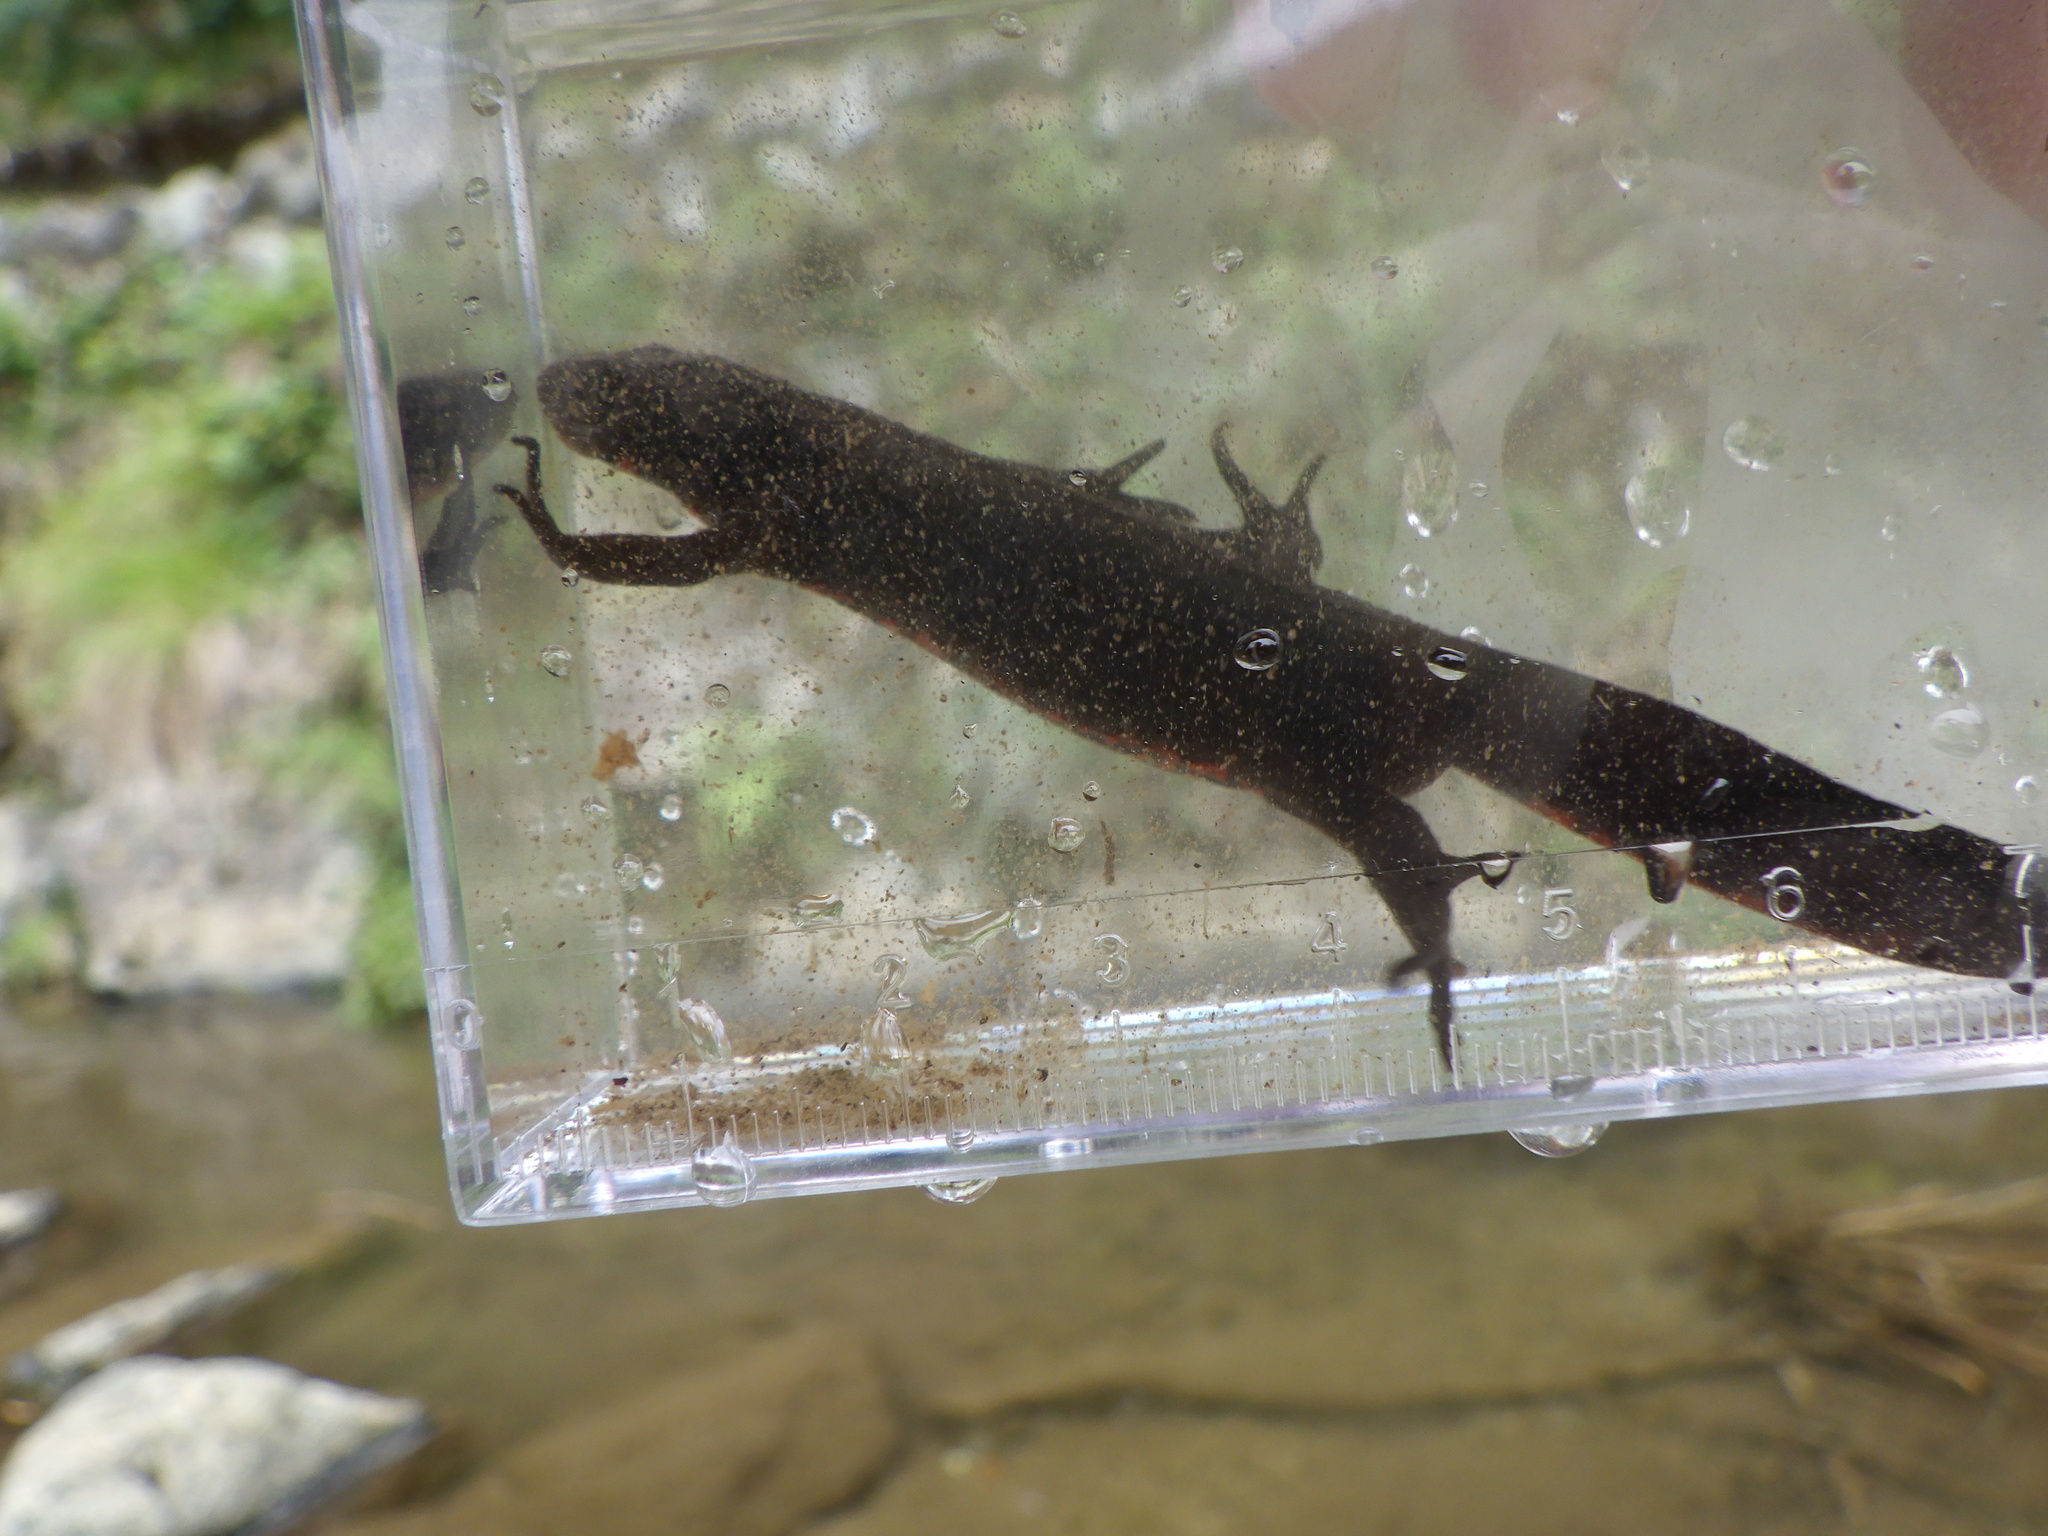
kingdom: Animalia
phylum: Chordata
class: Amphibia
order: Caudata
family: Salamandridae
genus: Cynops
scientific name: Cynops pyrrhogaster
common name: Japanese fire-bellied newt
